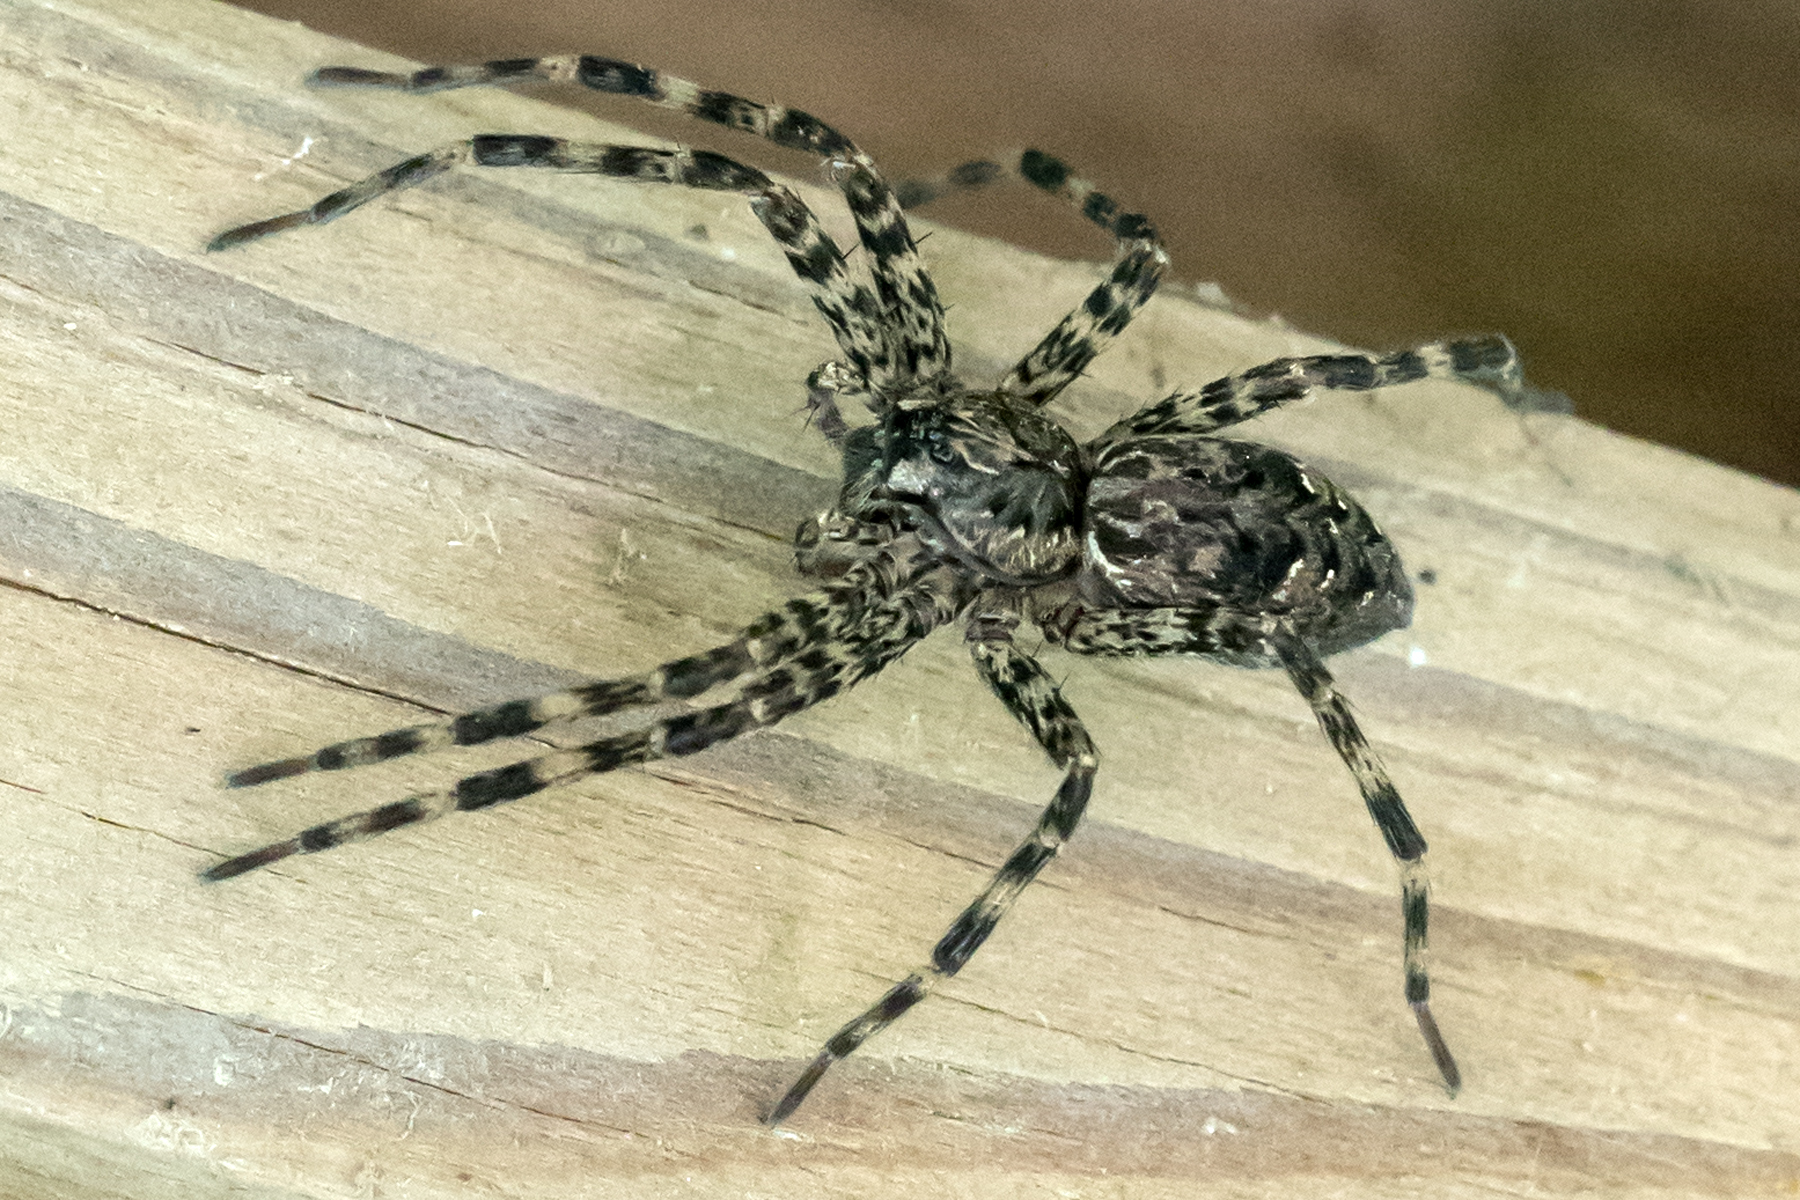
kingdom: Animalia
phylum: Arthropoda
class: Arachnida
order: Araneae
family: Pisauridae
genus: Dolomedes
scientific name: Dolomedes tenebrosus
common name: Dark fishing spider
